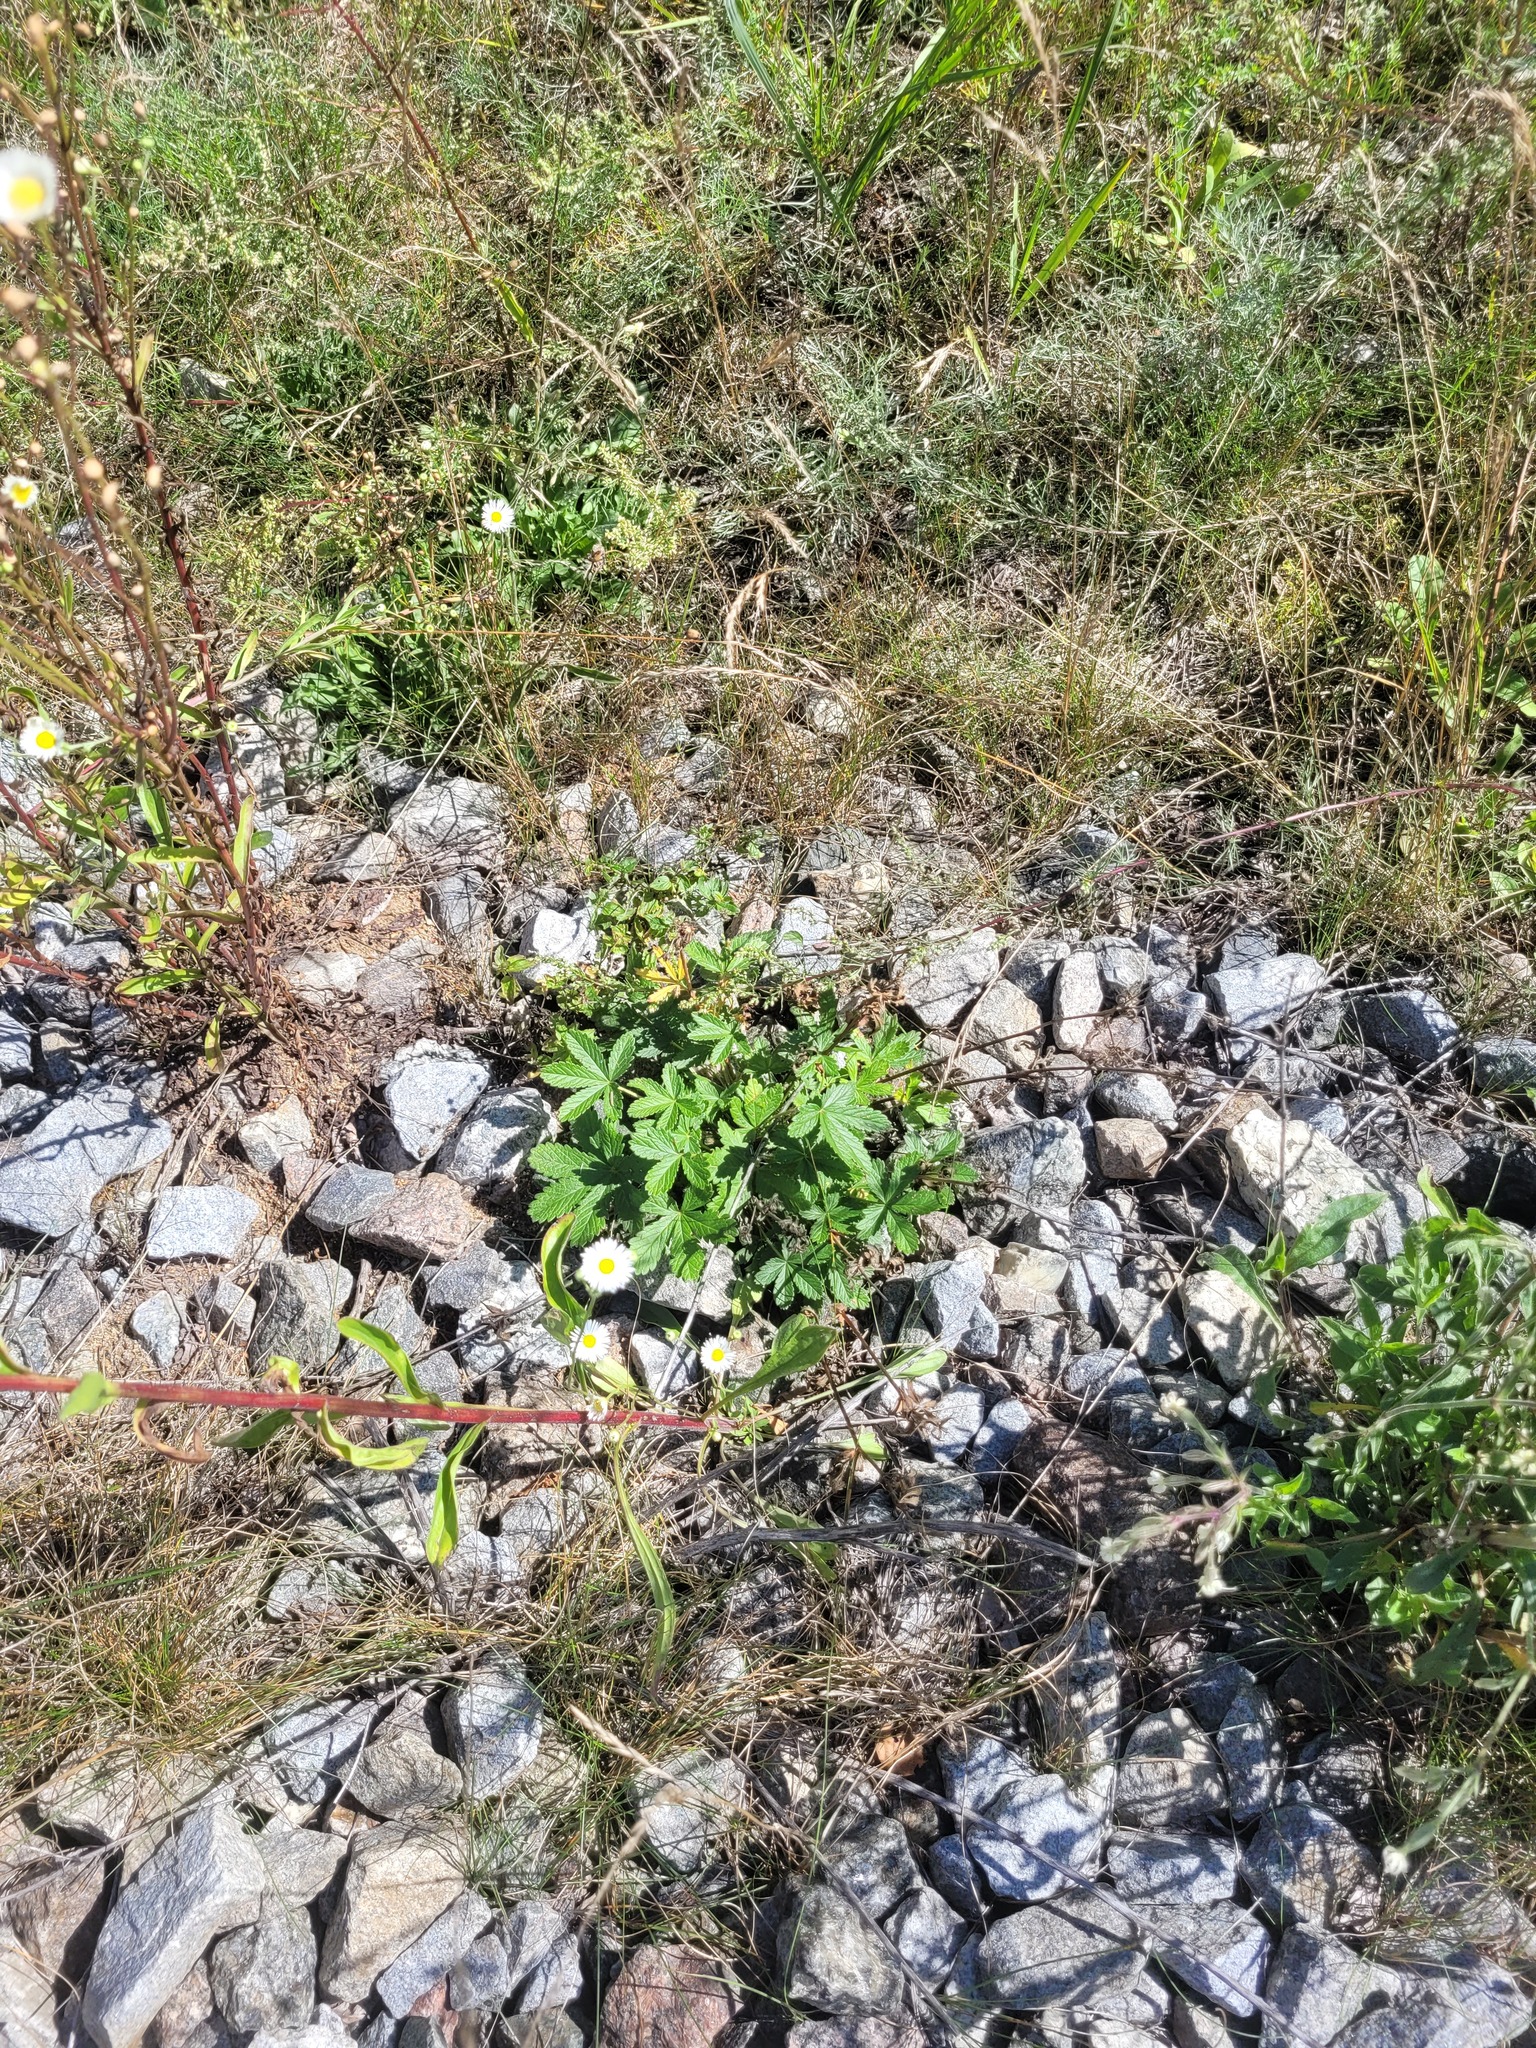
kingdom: Plantae
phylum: Tracheophyta
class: Magnoliopsida
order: Rosales
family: Rosaceae
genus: Potentilla
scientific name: Potentilla thuringiaca
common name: European cinquefoil
